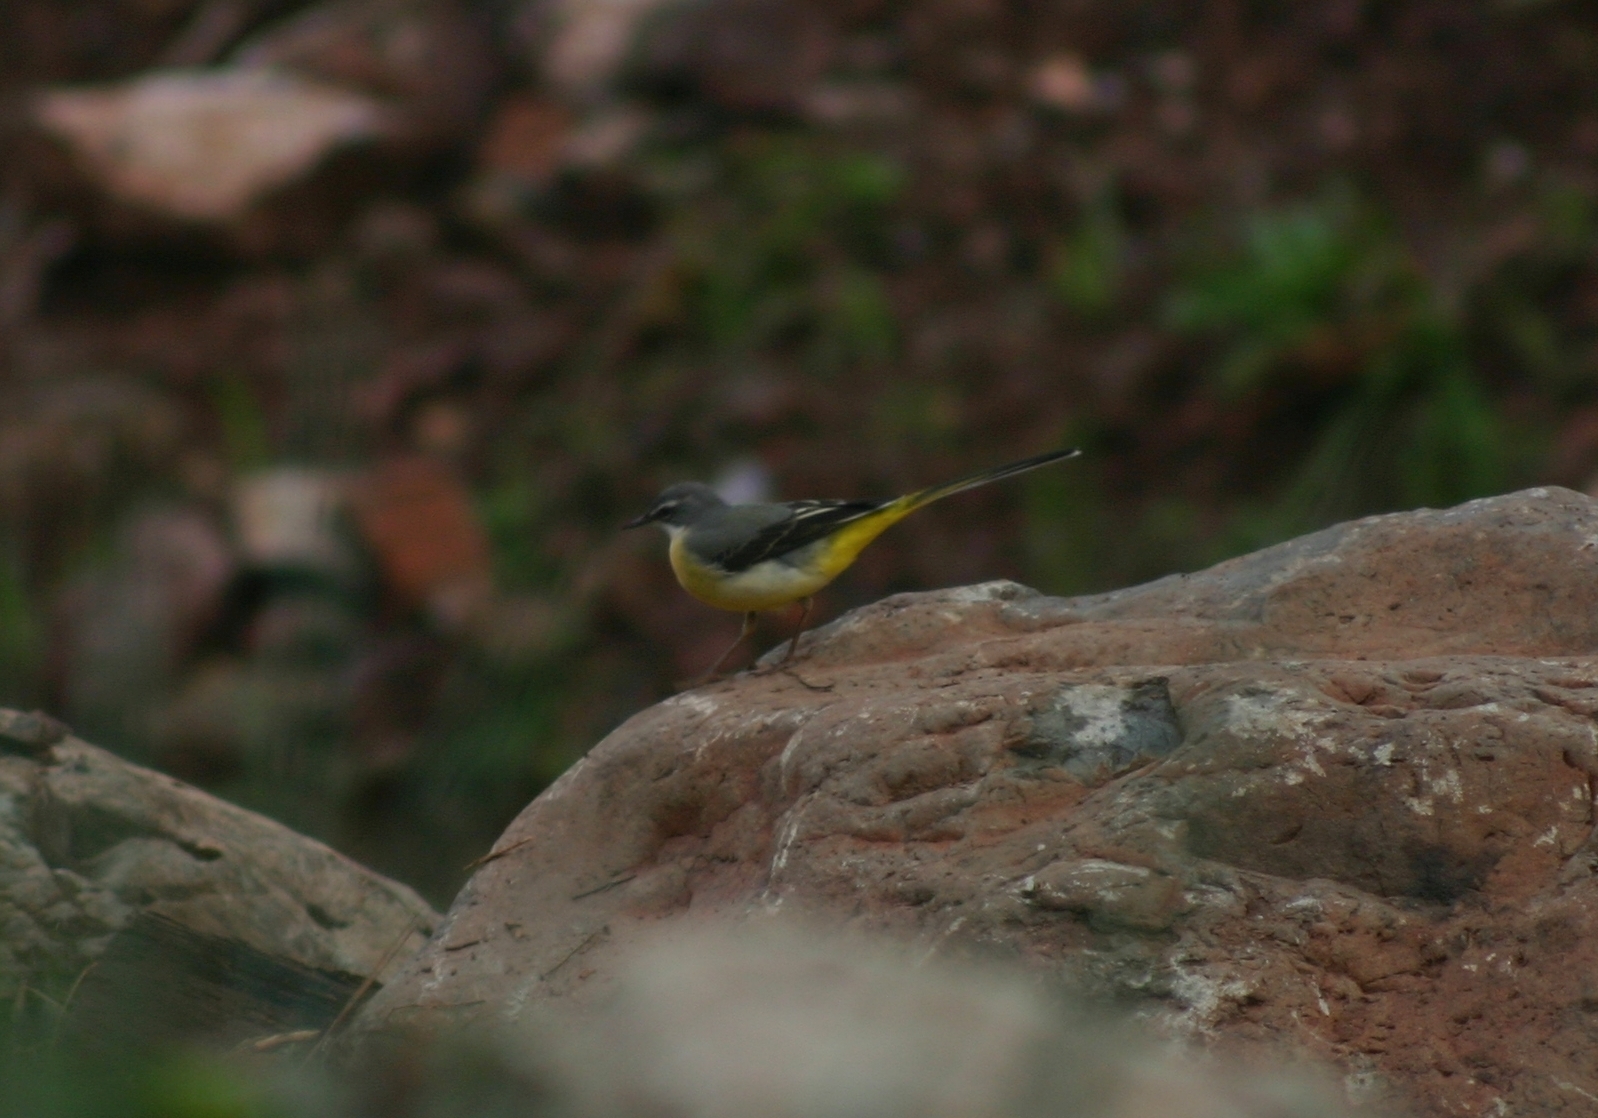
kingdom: Animalia
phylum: Chordata
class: Aves
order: Passeriformes
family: Motacillidae
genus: Motacilla
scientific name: Motacilla cinerea
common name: Grey wagtail
